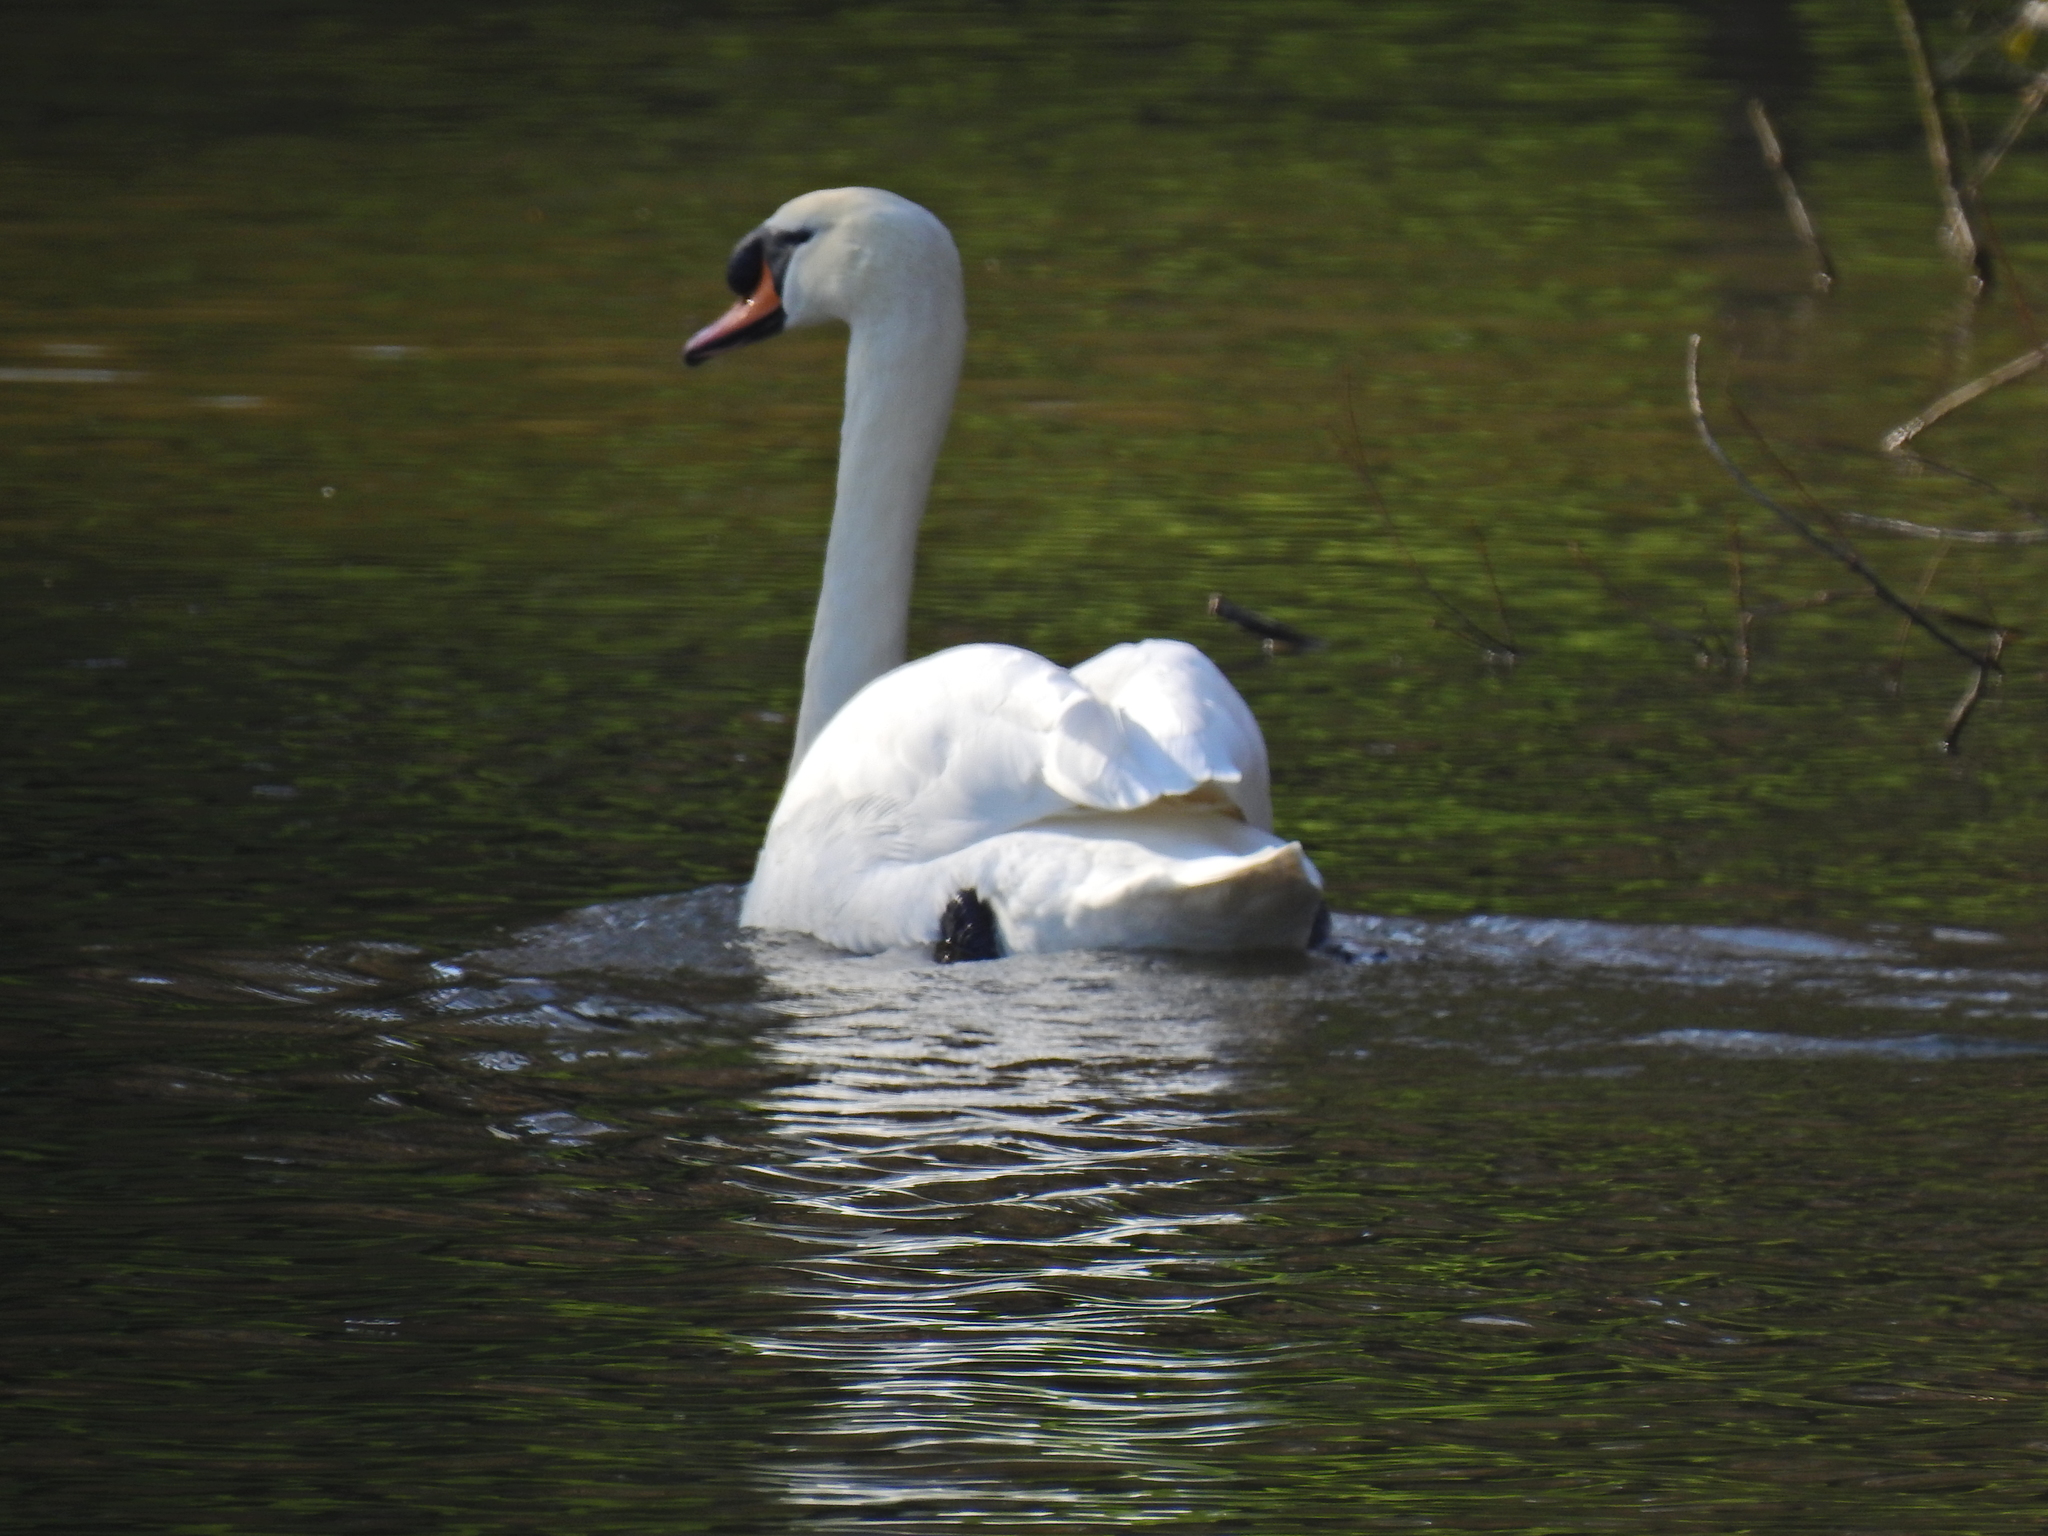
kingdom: Animalia
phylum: Chordata
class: Aves
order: Anseriformes
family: Anatidae
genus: Cygnus
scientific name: Cygnus olor
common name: Mute swan
